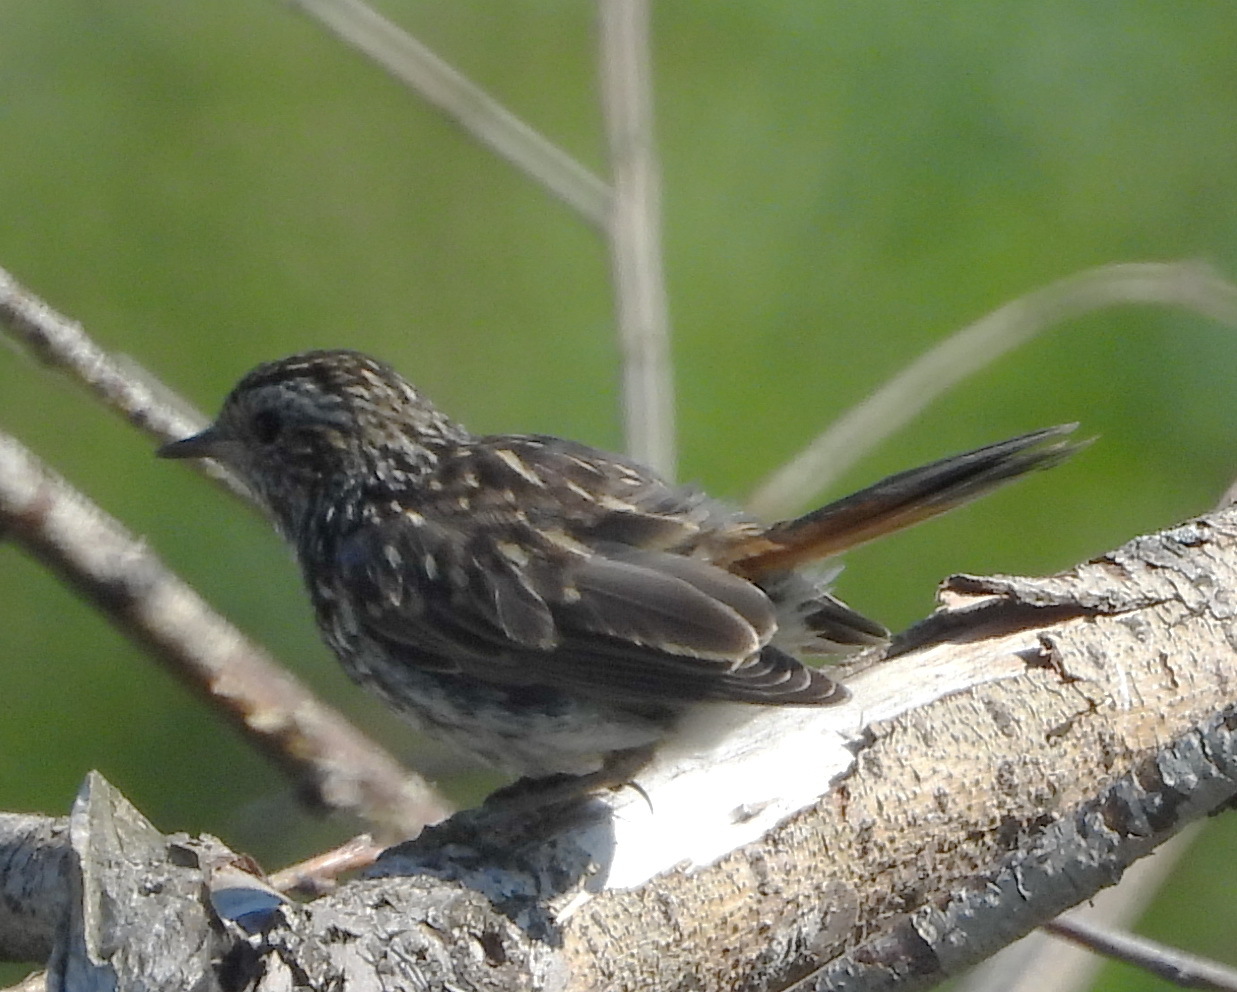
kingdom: Animalia
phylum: Chordata
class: Aves
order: Passeriformes
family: Muscicapidae
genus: Luscinia
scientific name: Luscinia svecica
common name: Bluethroat
